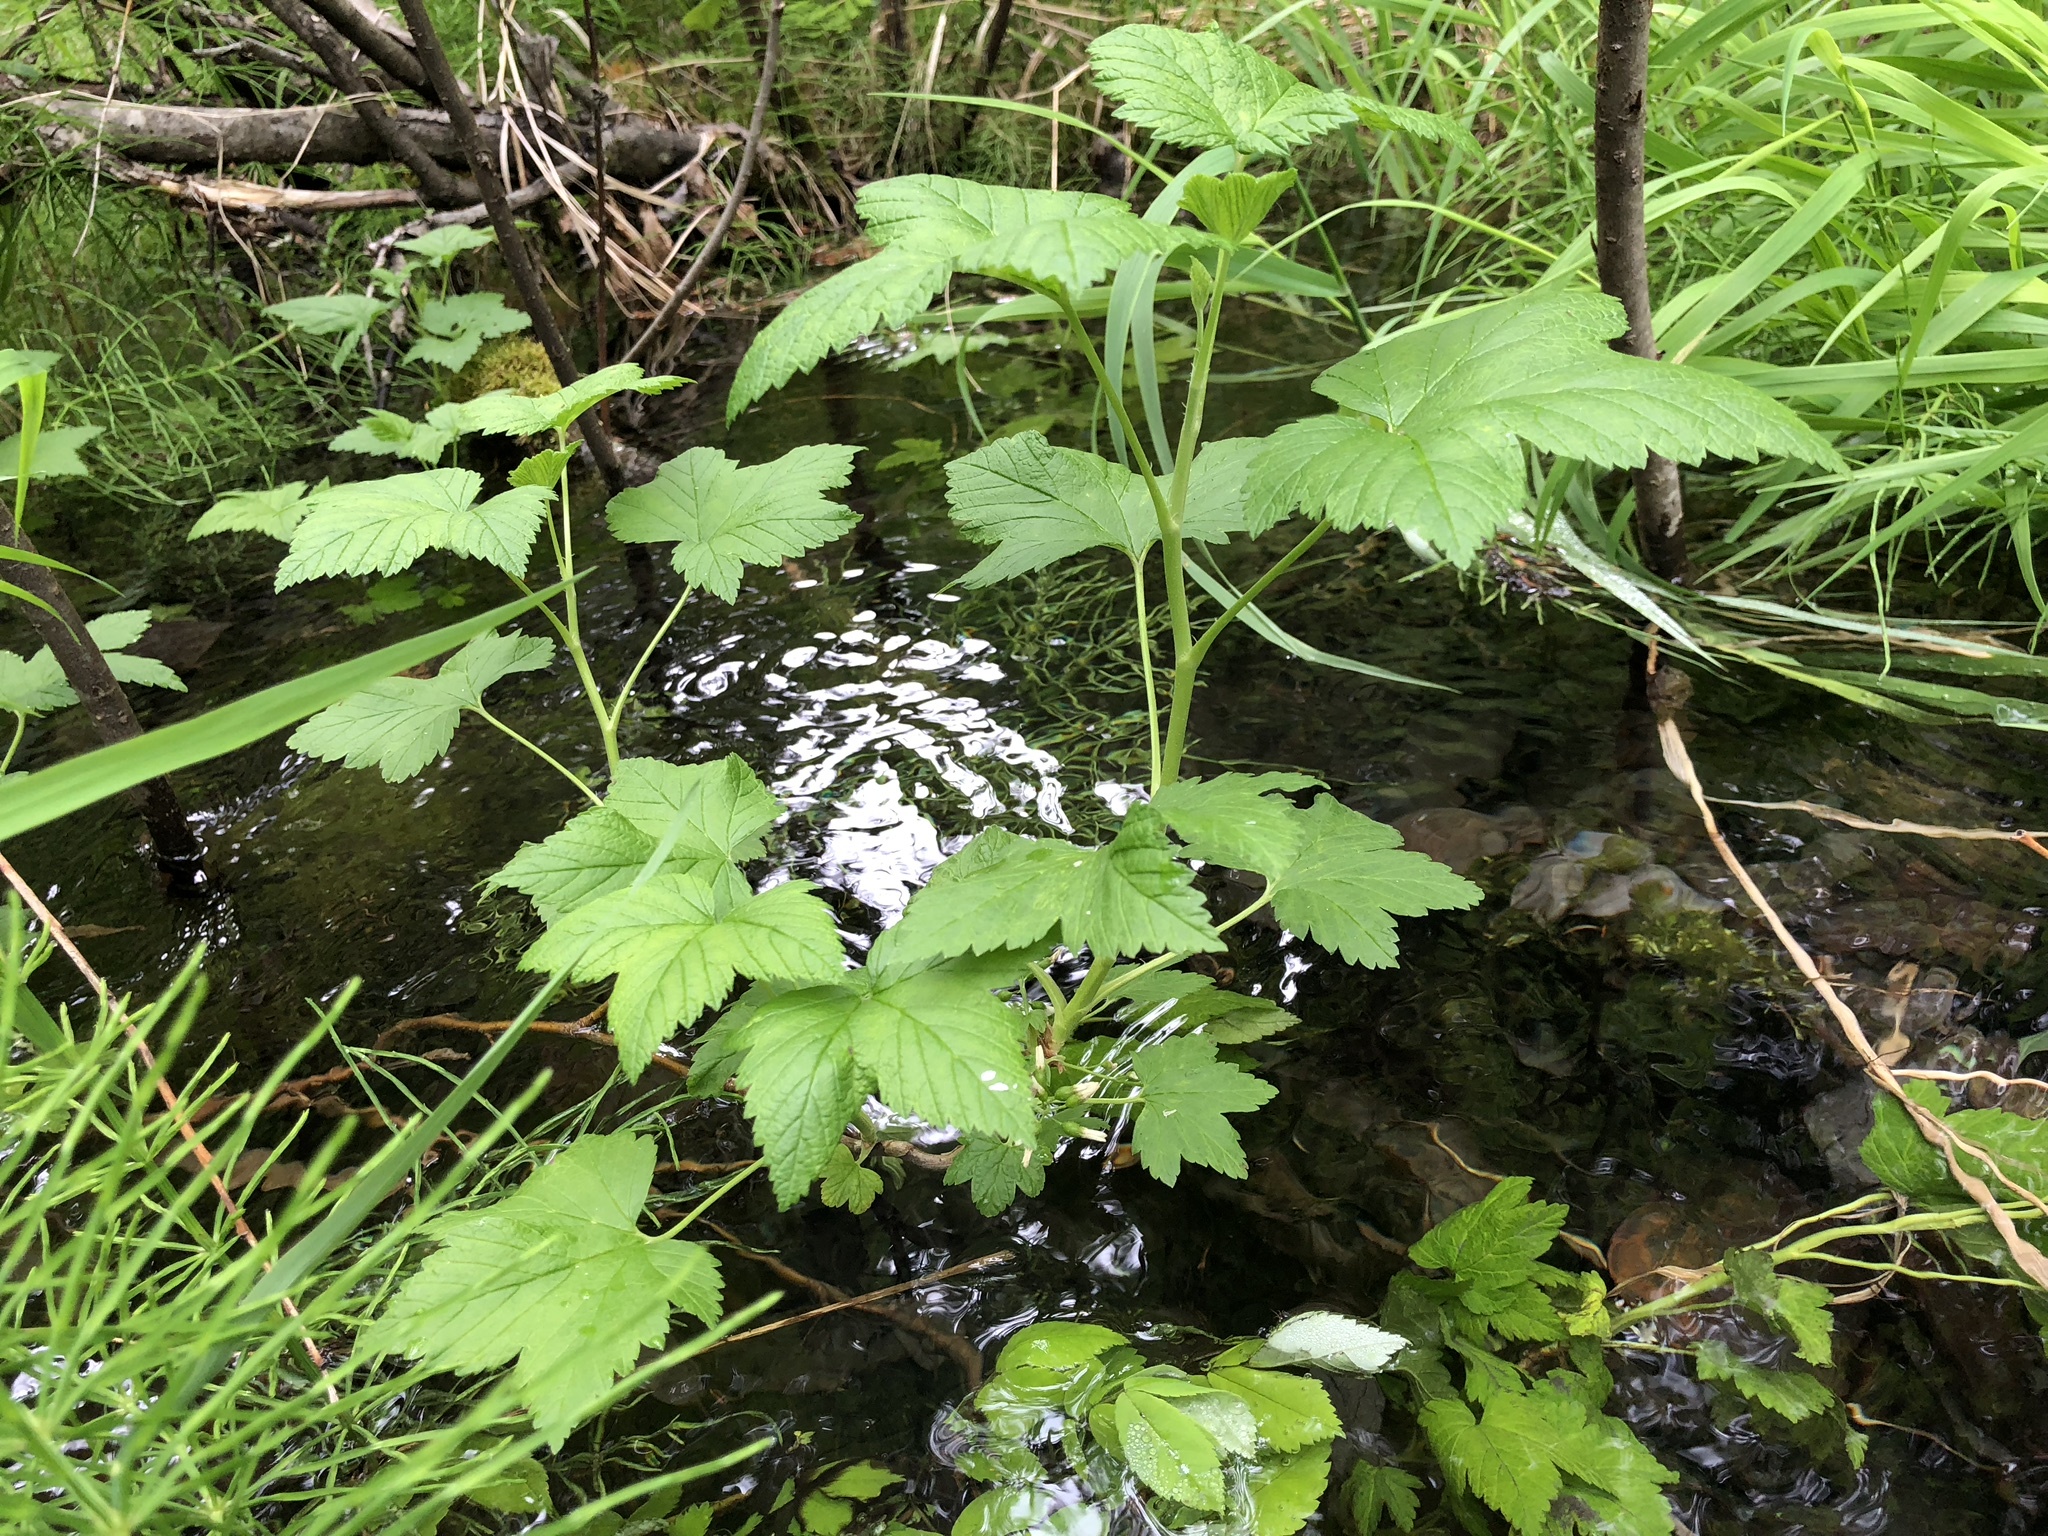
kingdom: Plantae
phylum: Tracheophyta
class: Magnoliopsida
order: Saxifragales
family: Grossulariaceae
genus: Ribes
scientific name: Ribes hudsonianum
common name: Northern black currant
